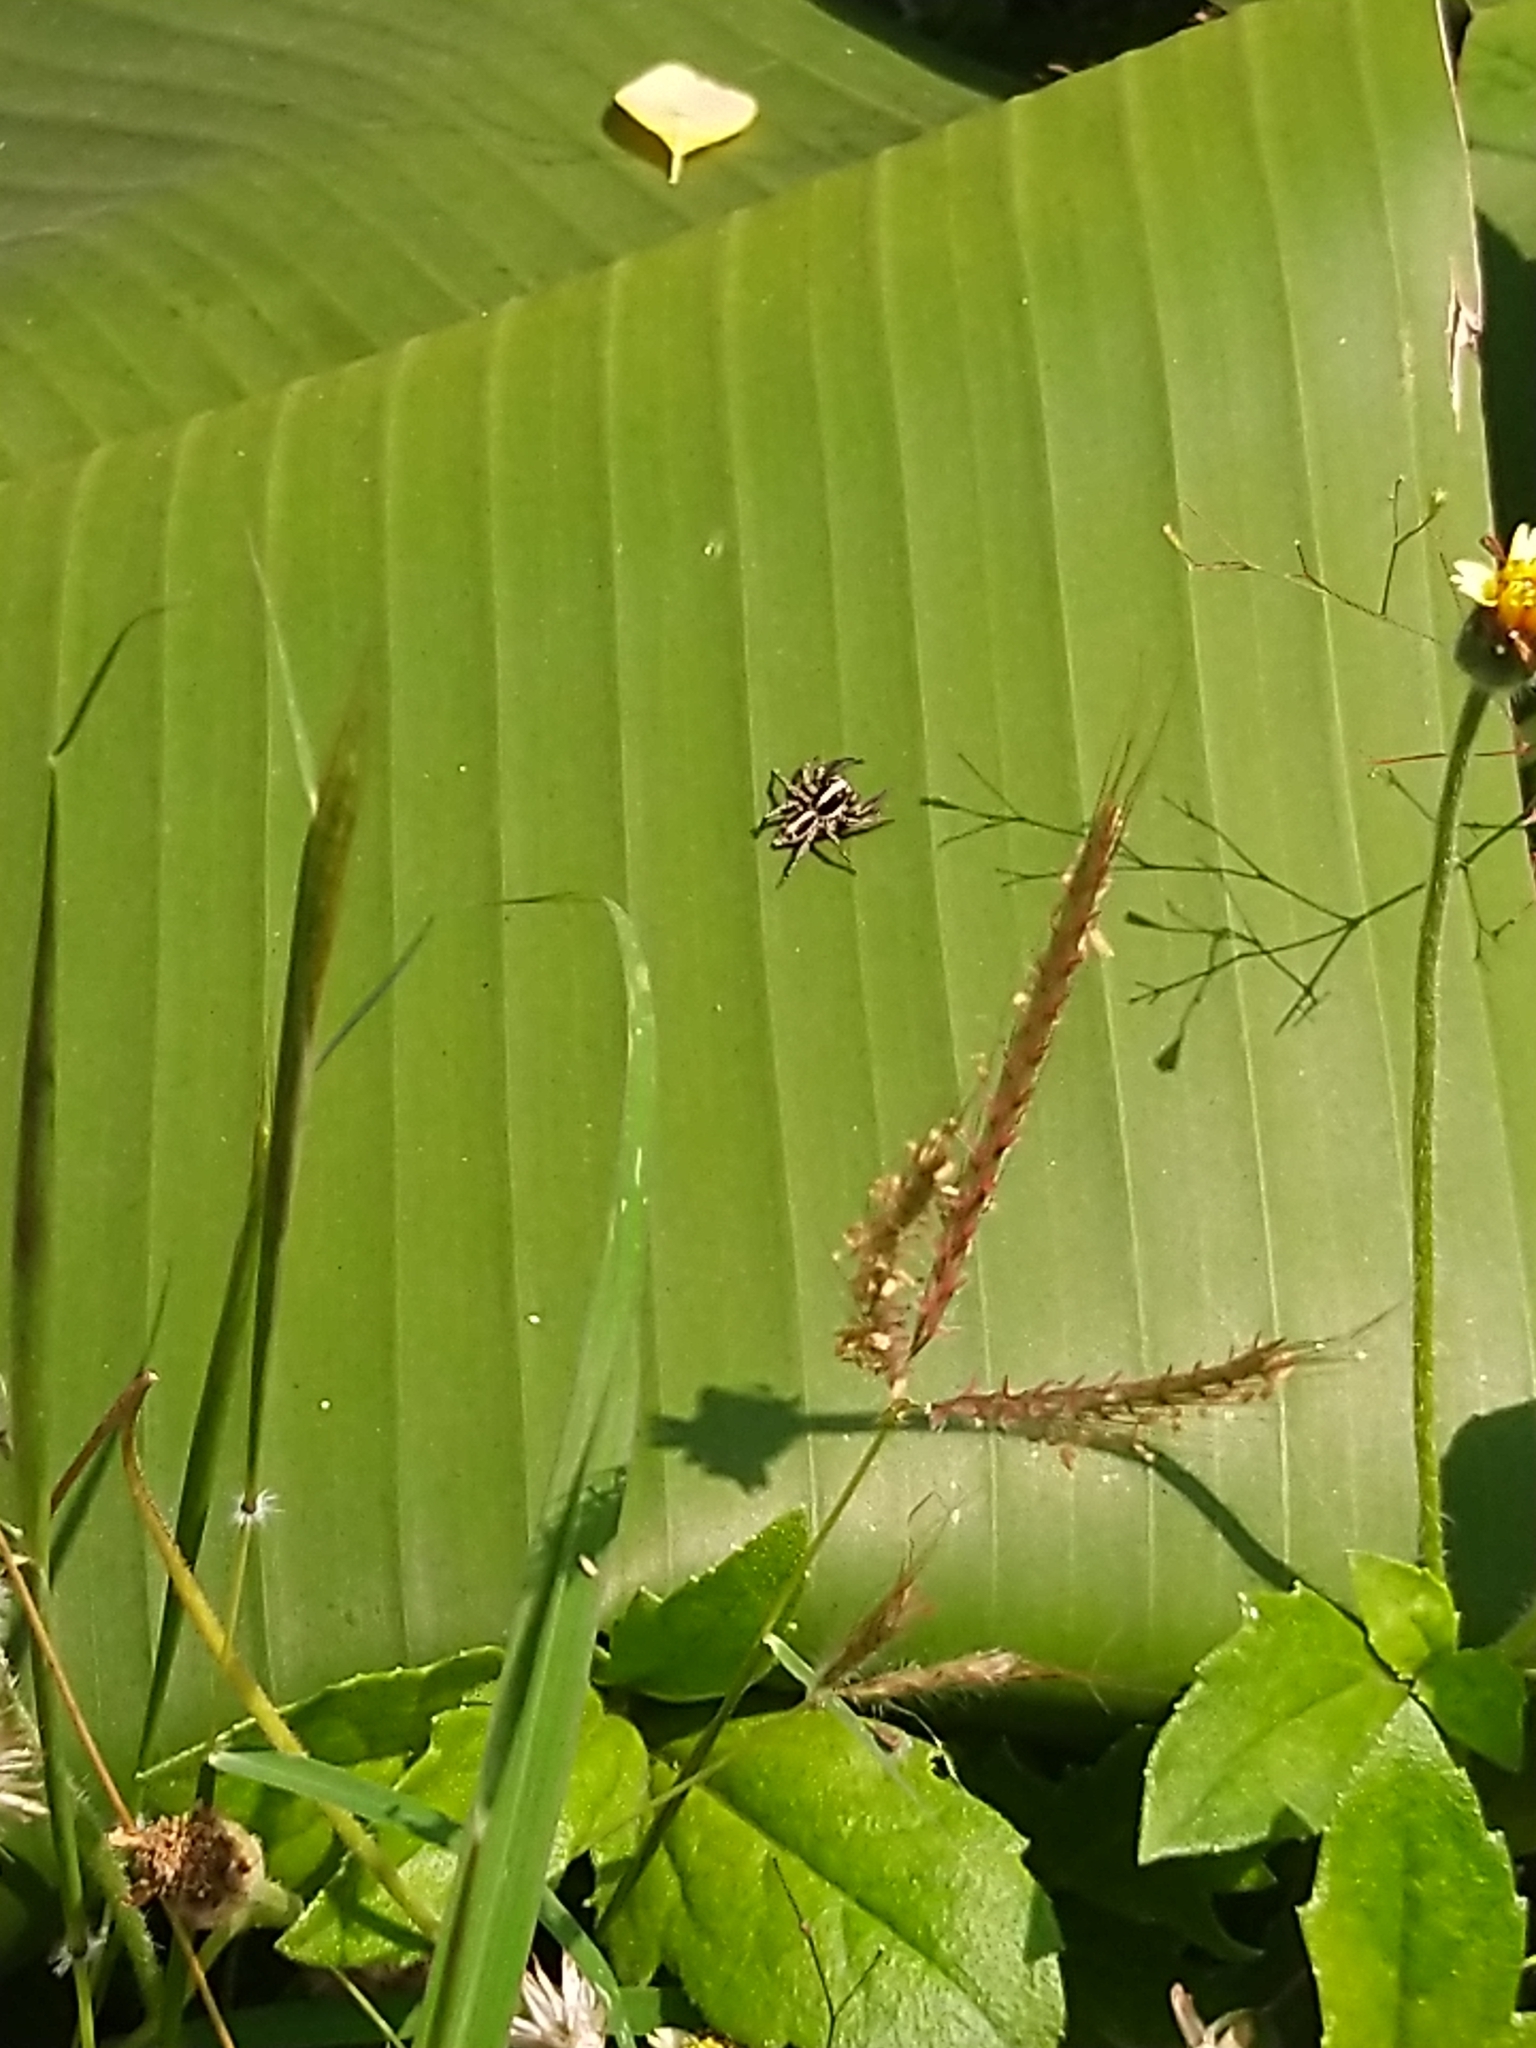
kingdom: Animalia
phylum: Arthropoda
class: Arachnida
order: Araneae
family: Salticidae
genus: Plexippus
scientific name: Plexippus paykulli
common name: Pantropical jumper
